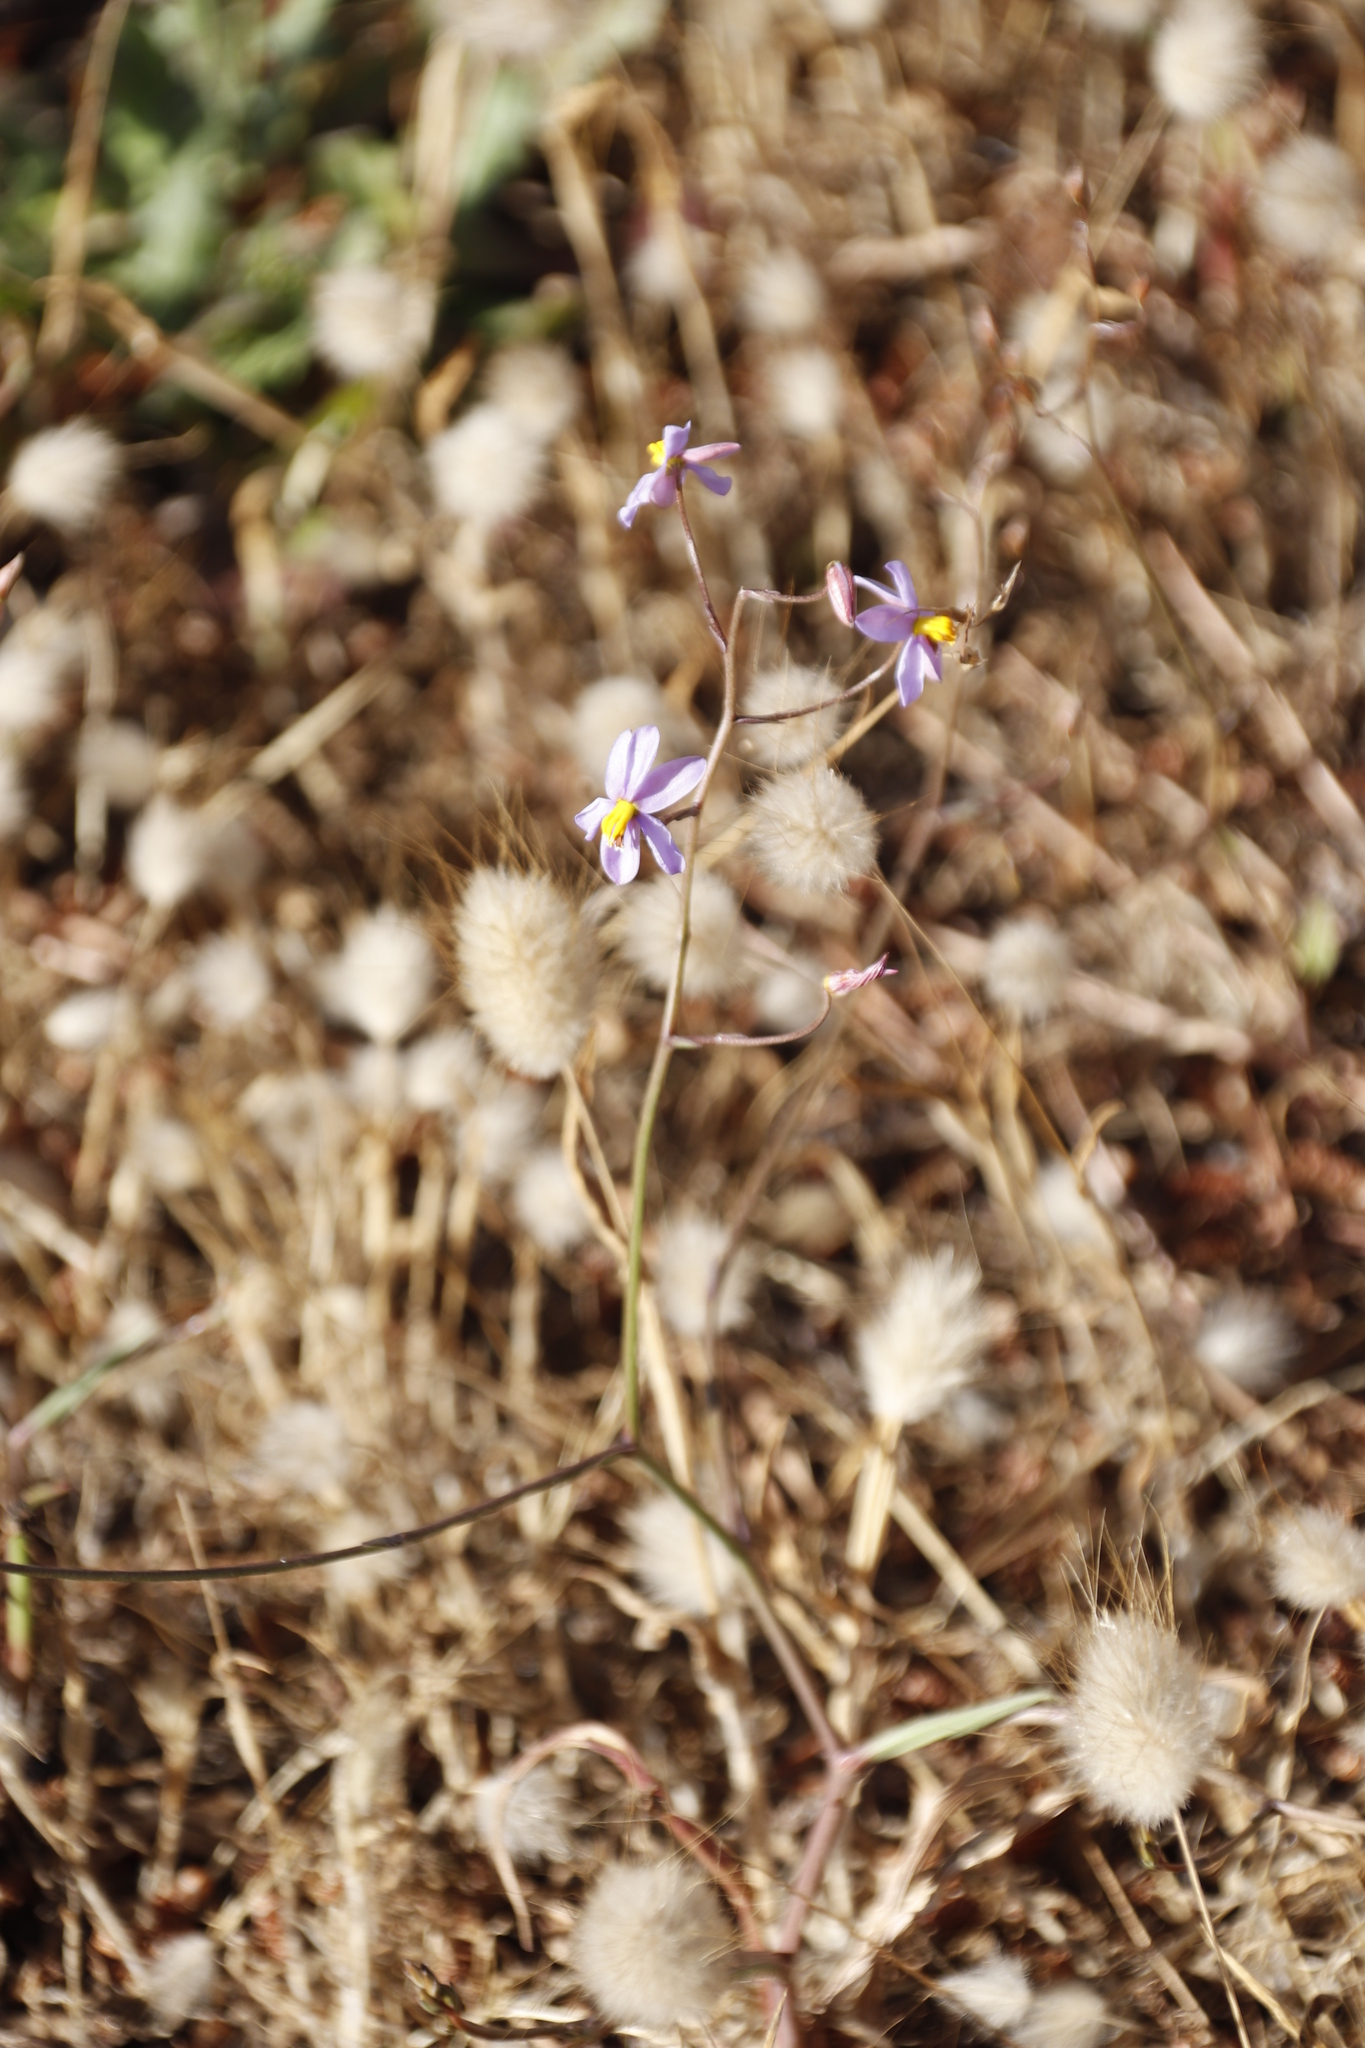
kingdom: Plantae
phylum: Tracheophyta
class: Liliopsida
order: Asparagales
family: Tecophilaeaceae
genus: Cyanella
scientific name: Cyanella hyacinthoides
